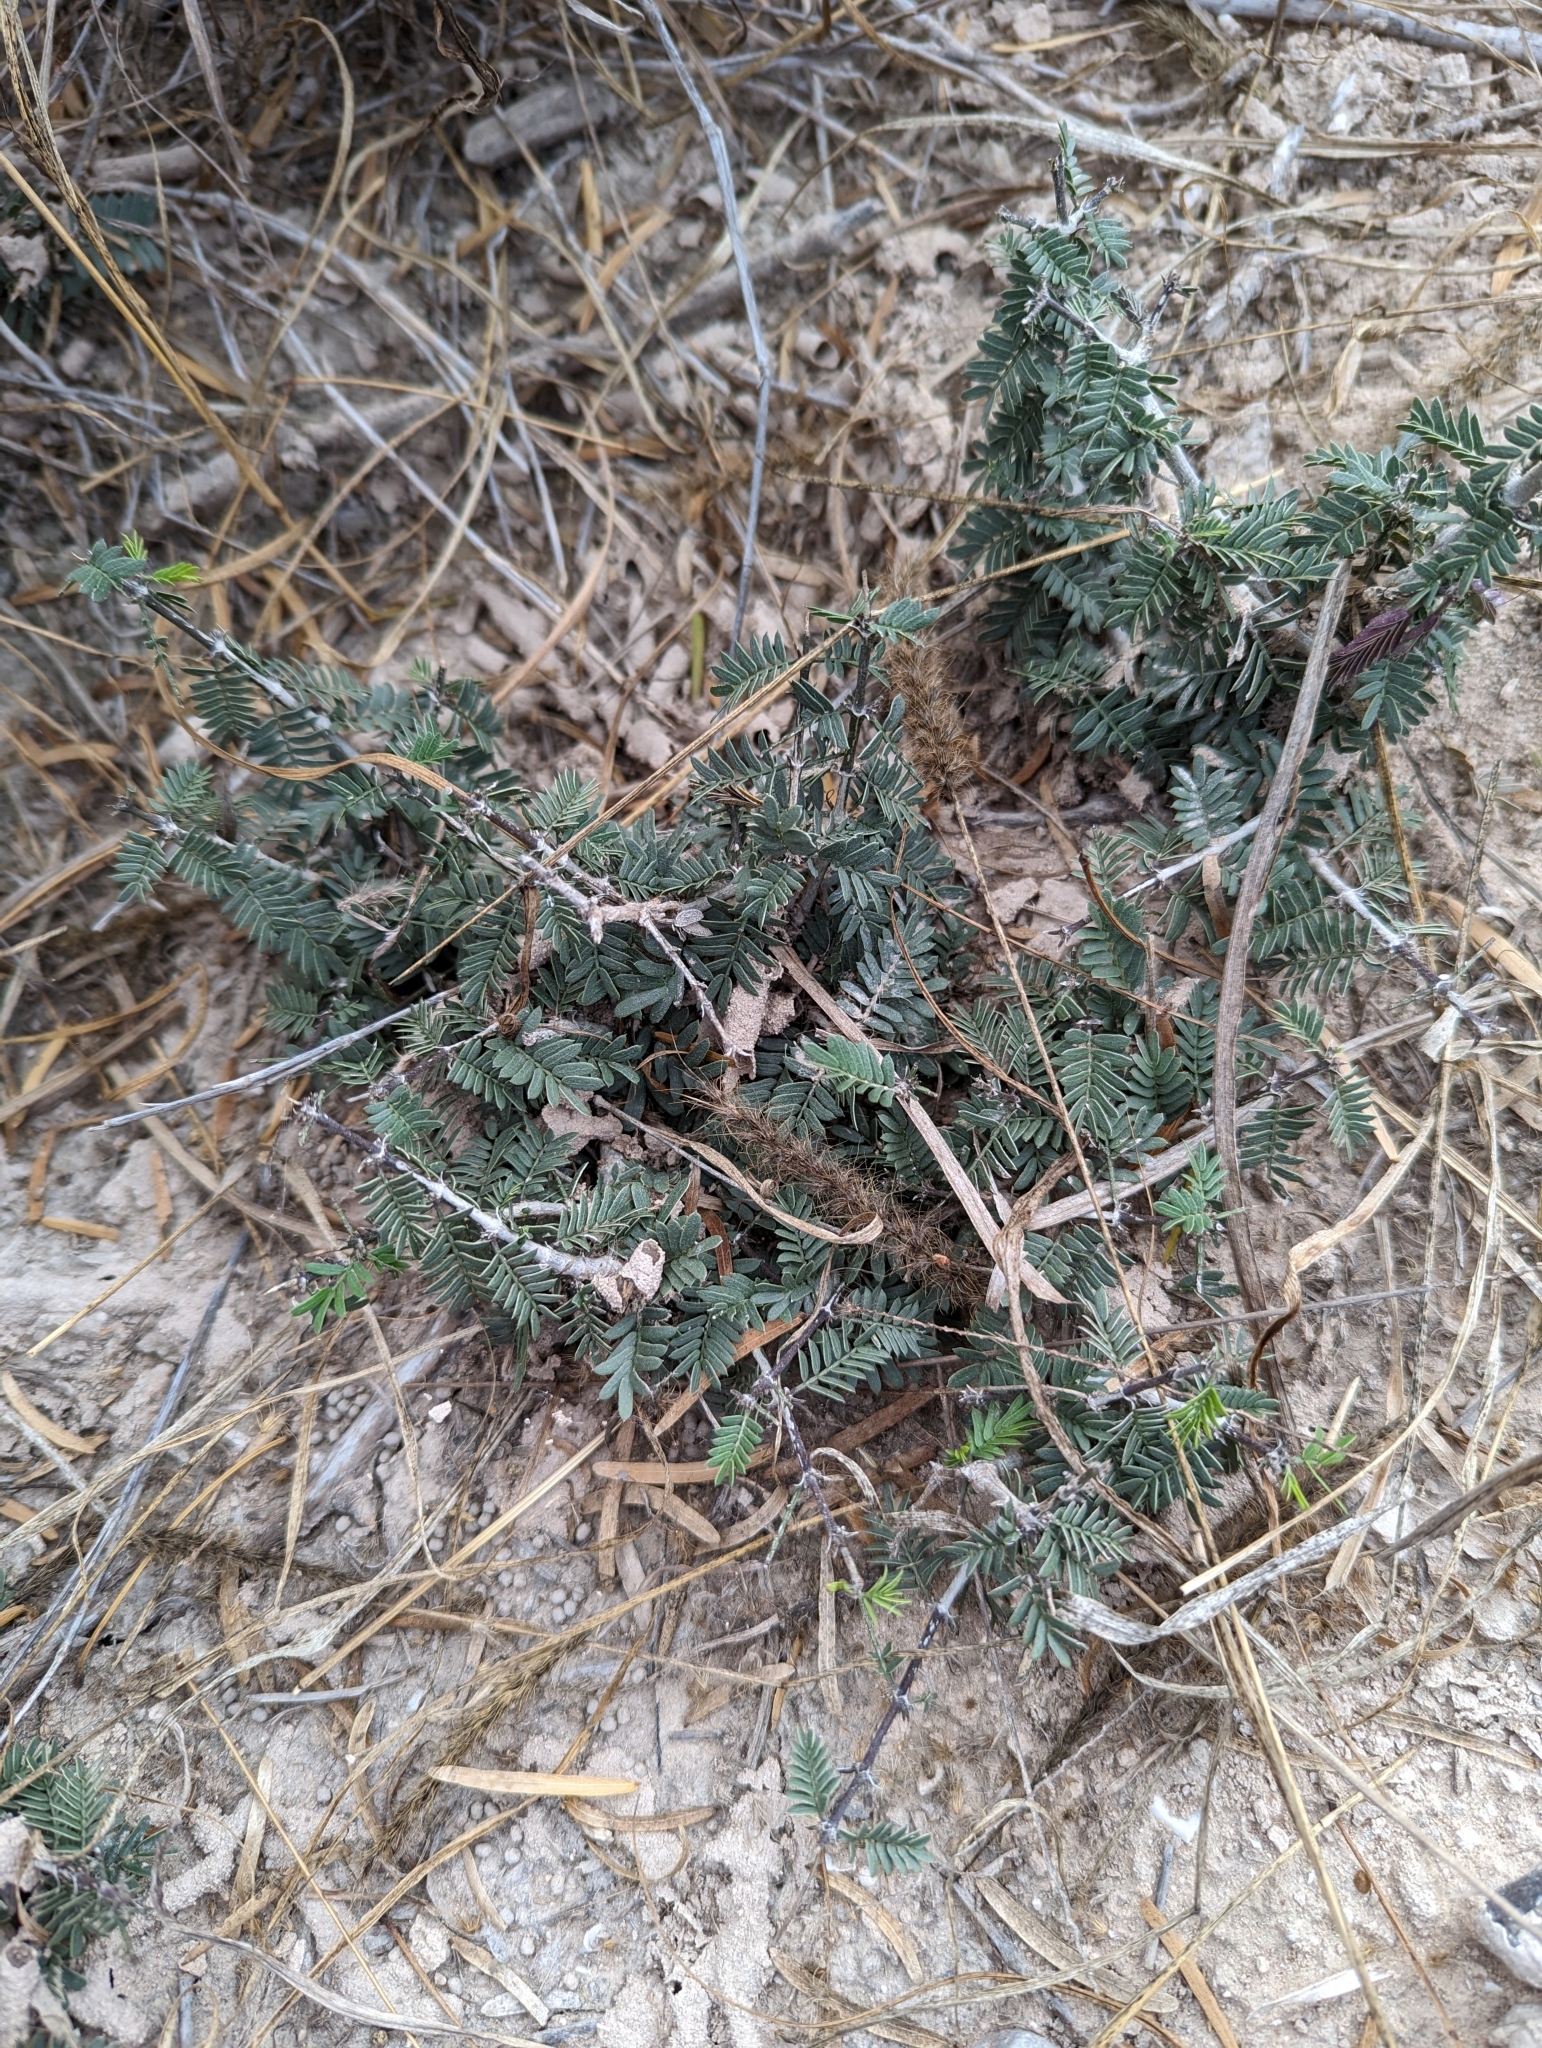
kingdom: Plantae
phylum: Tracheophyta
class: Magnoliopsida
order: Zygophyllales
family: Zygophyllaceae
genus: Porlieria
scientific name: Porlieria angustifolia
